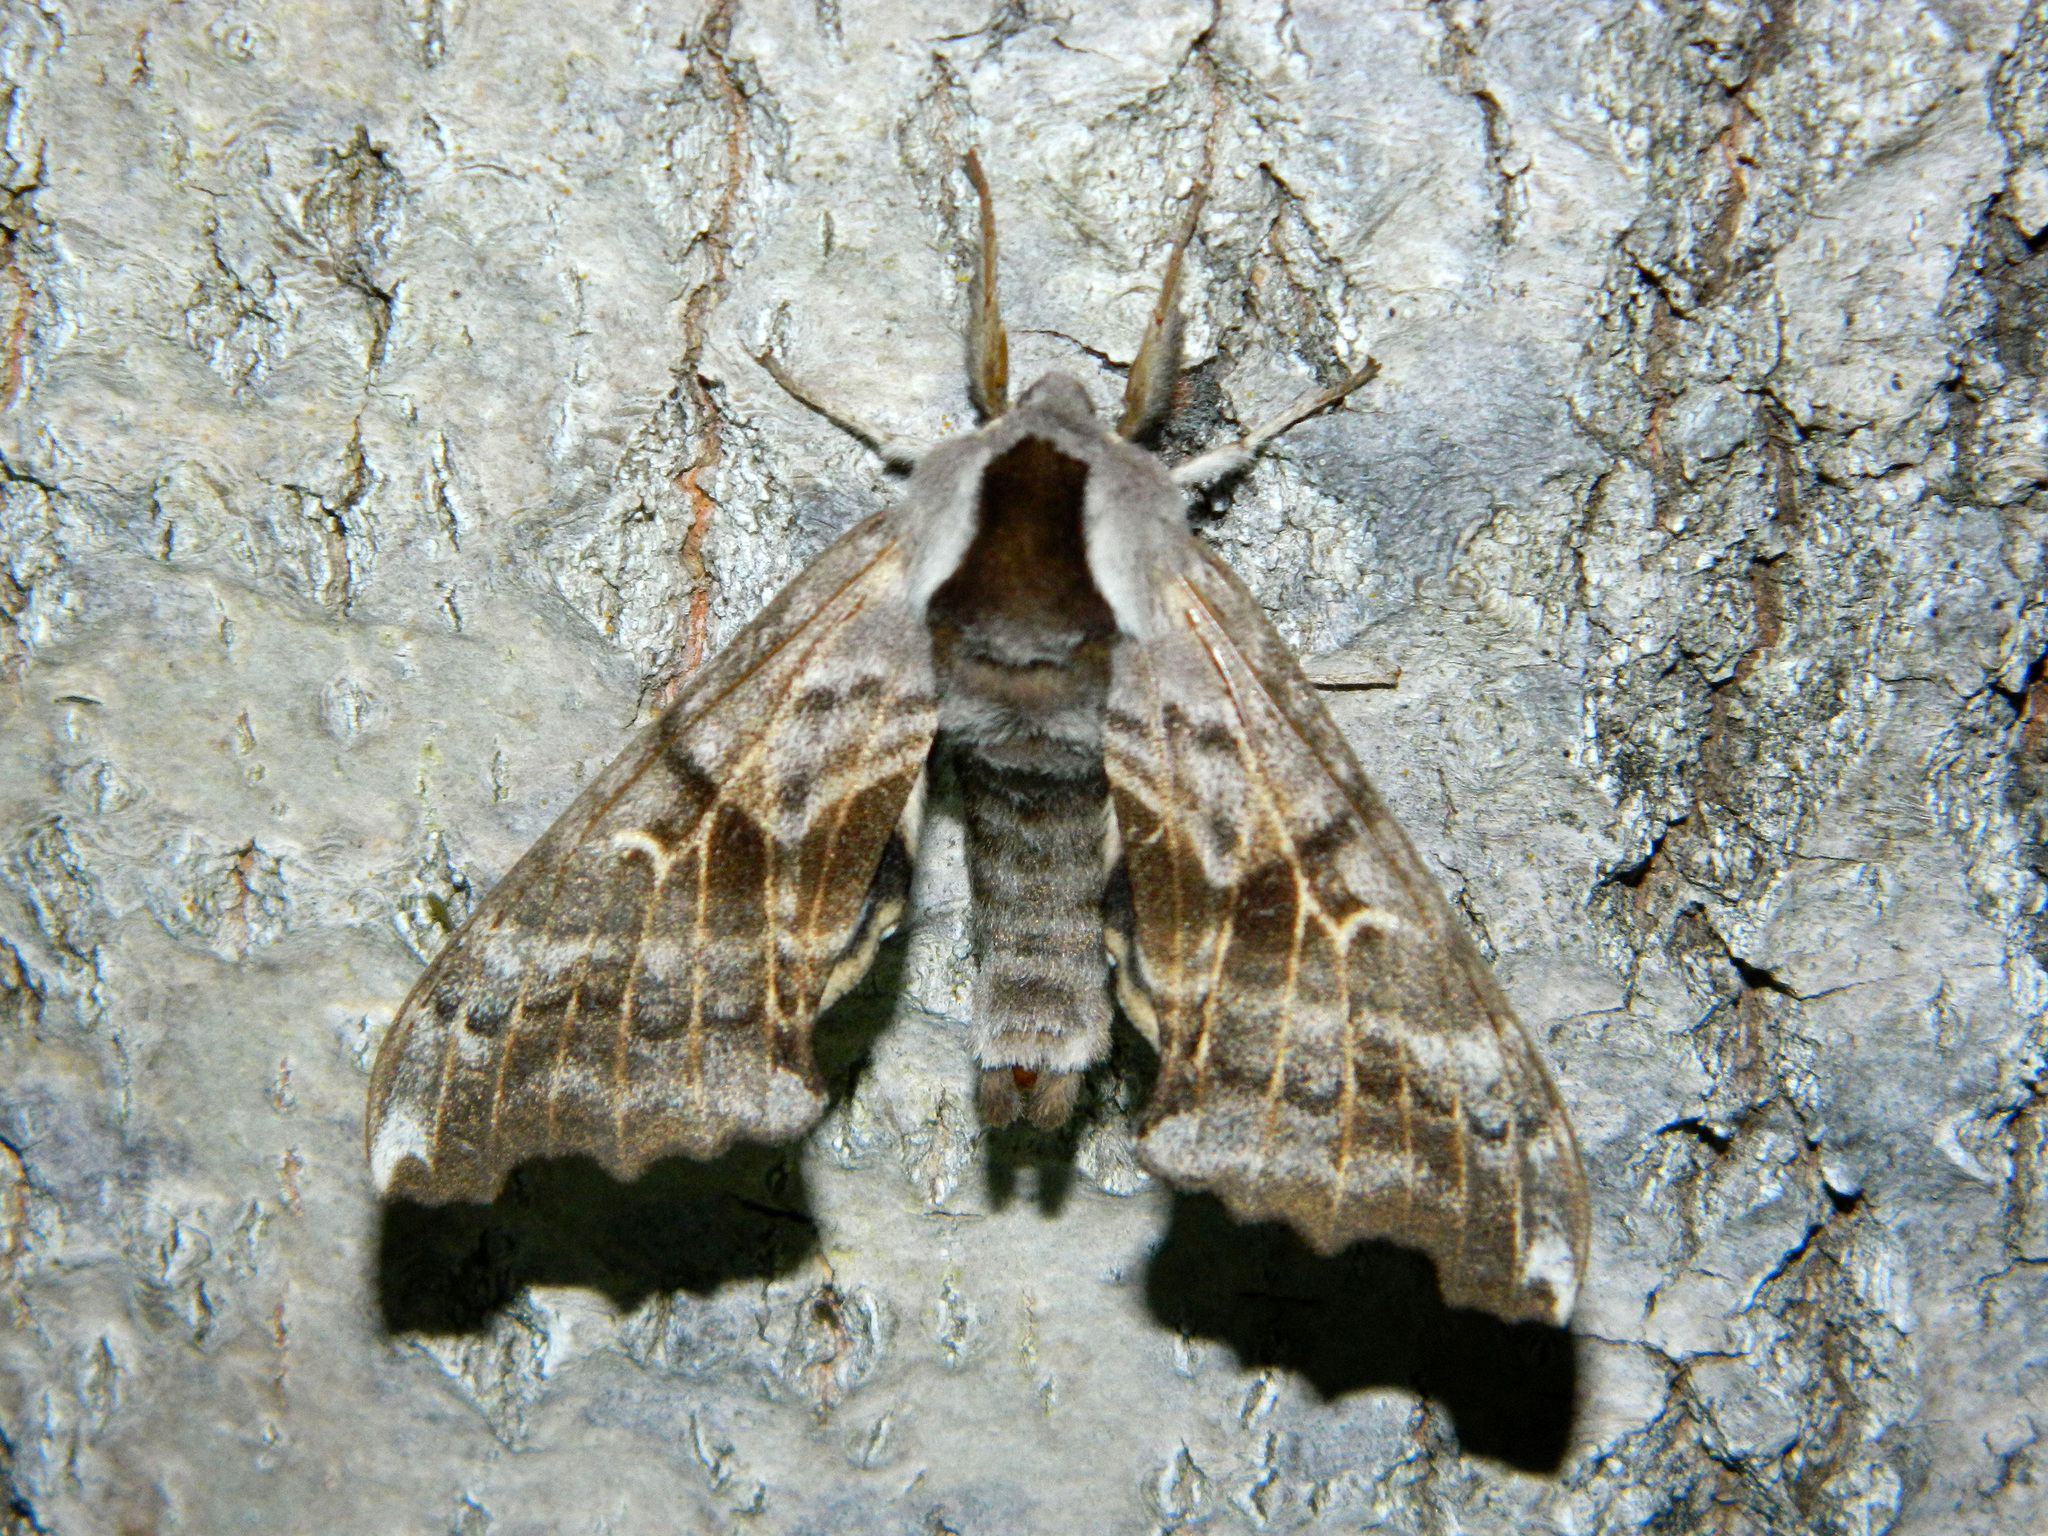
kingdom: Animalia
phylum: Arthropoda
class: Insecta
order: Lepidoptera
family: Sphingidae
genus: Smerinthus
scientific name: Smerinthus cerisyi
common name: Cerisy's sphinx moth
